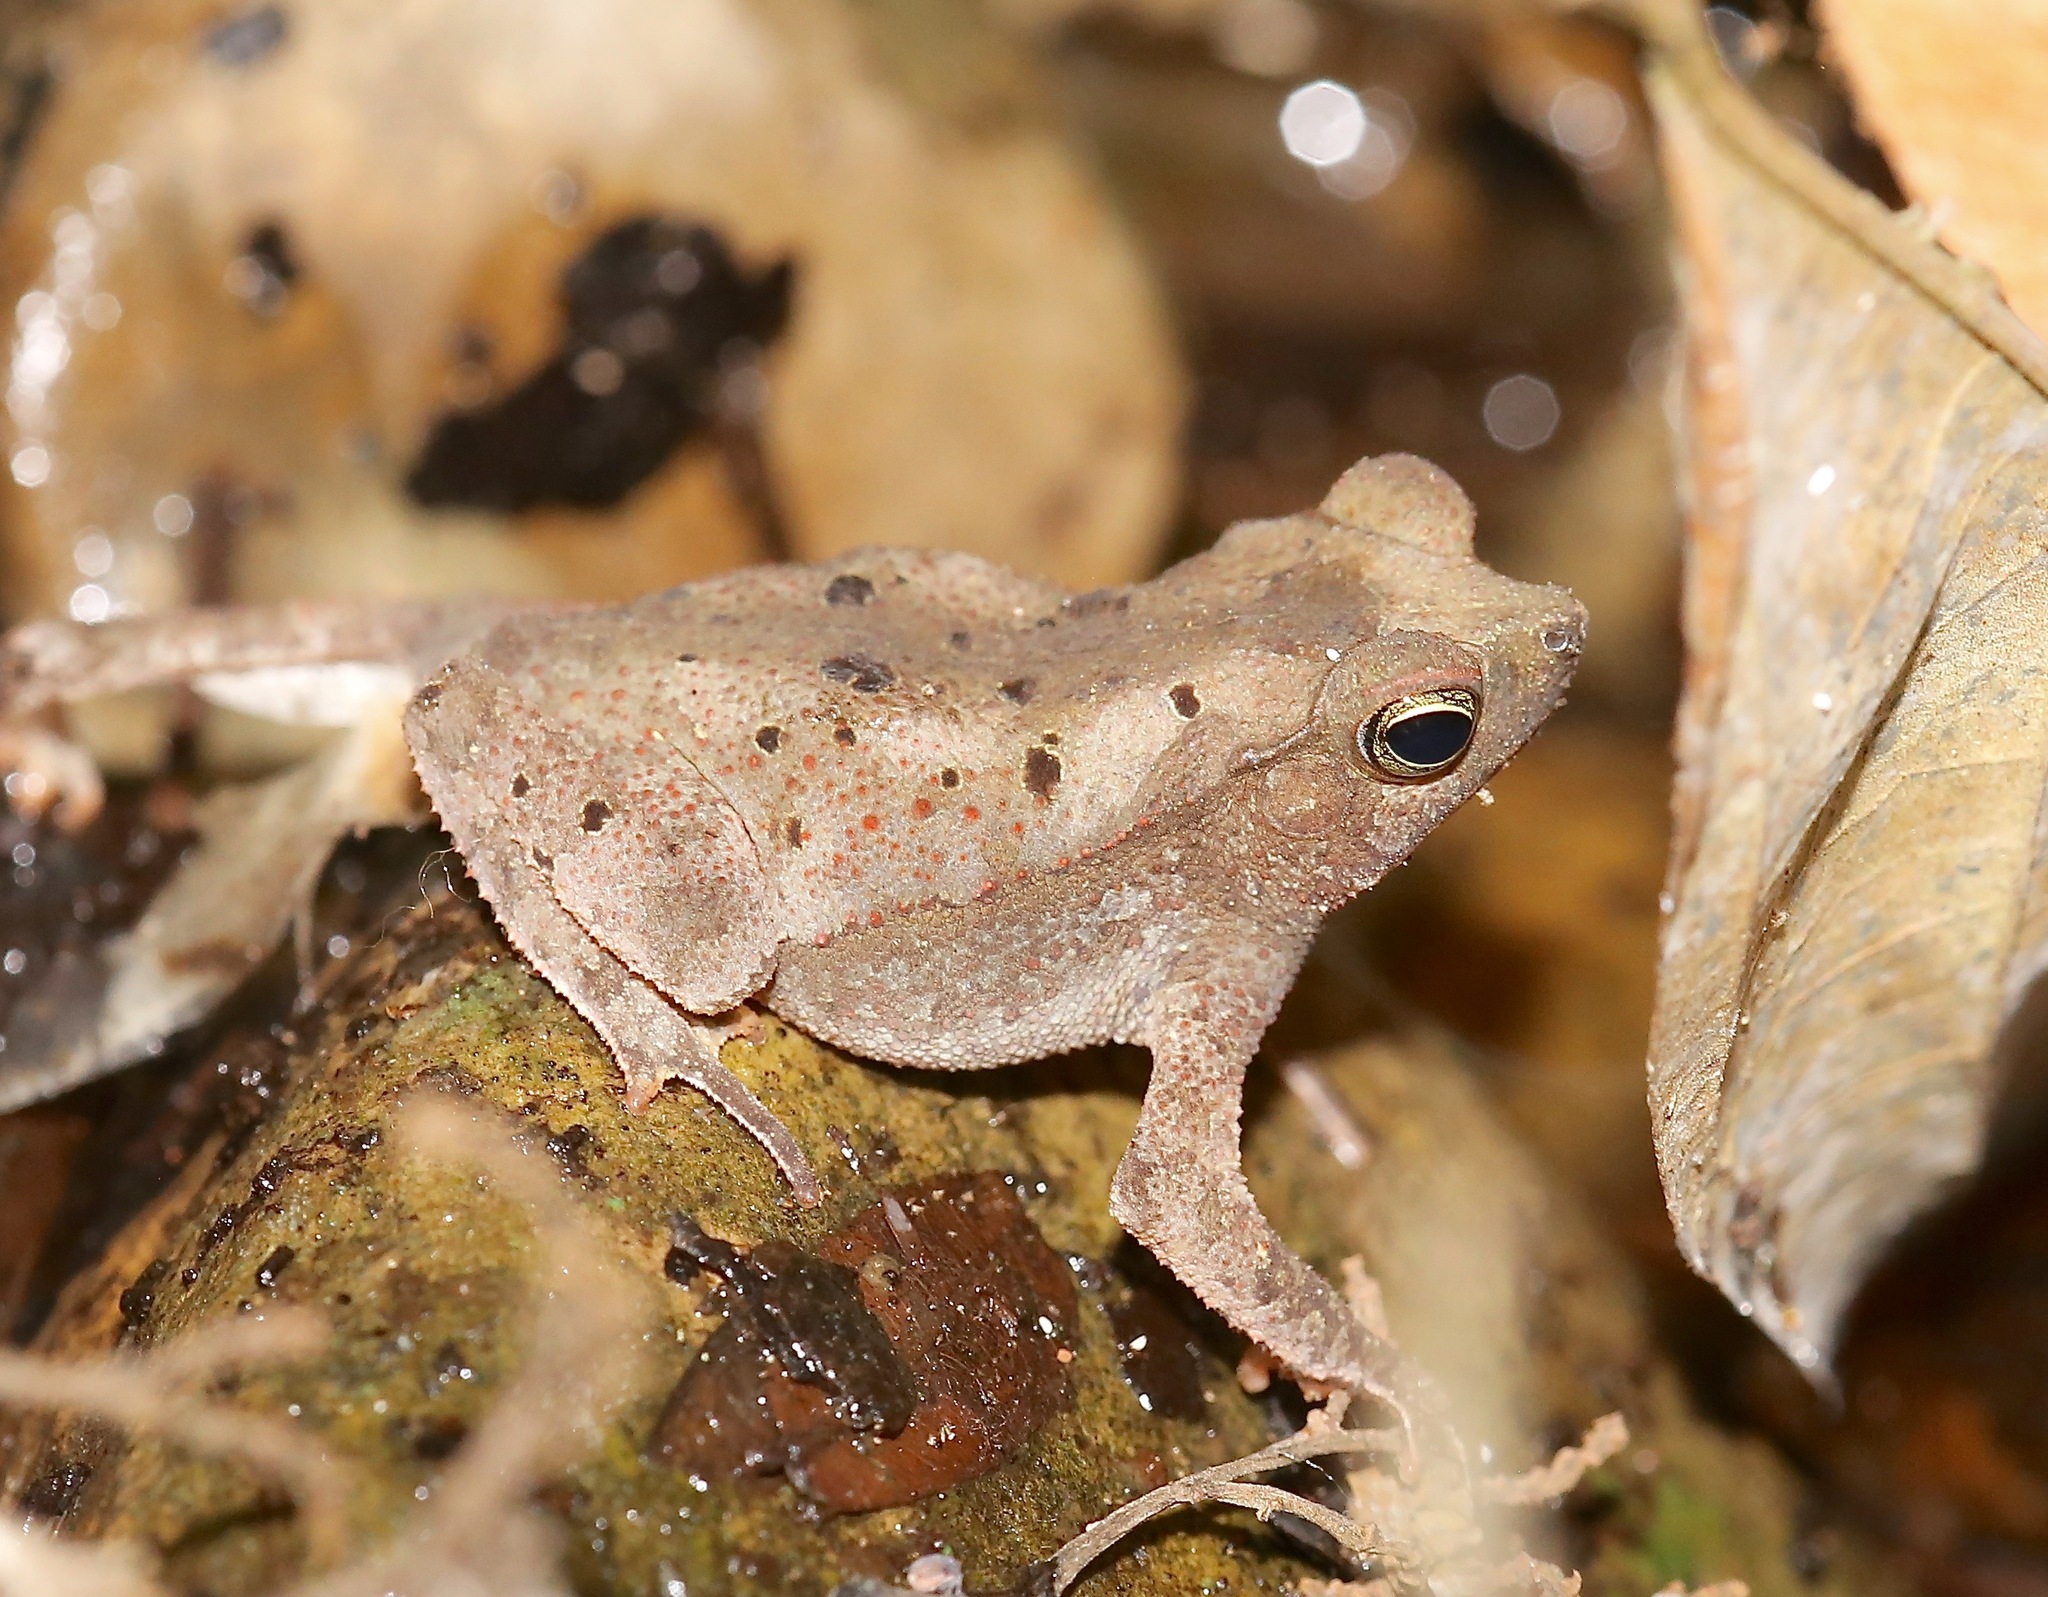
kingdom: Animalia
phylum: Chordata
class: Amphibia
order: Anura
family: Bufonidae
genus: Rhinella
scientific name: Rhinella alata
